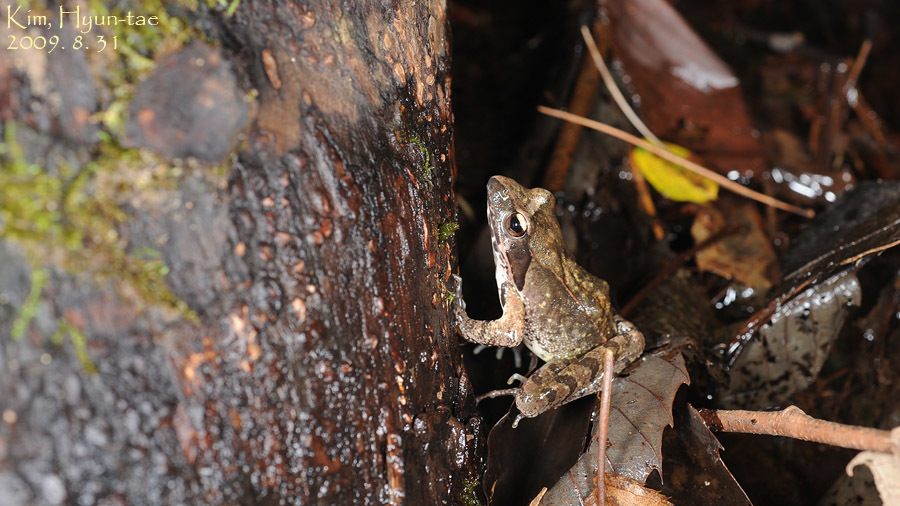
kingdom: Animalia
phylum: Chordata
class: Amphibia
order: Anura
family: Ranidae
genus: Rana
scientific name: Rana uenoi
